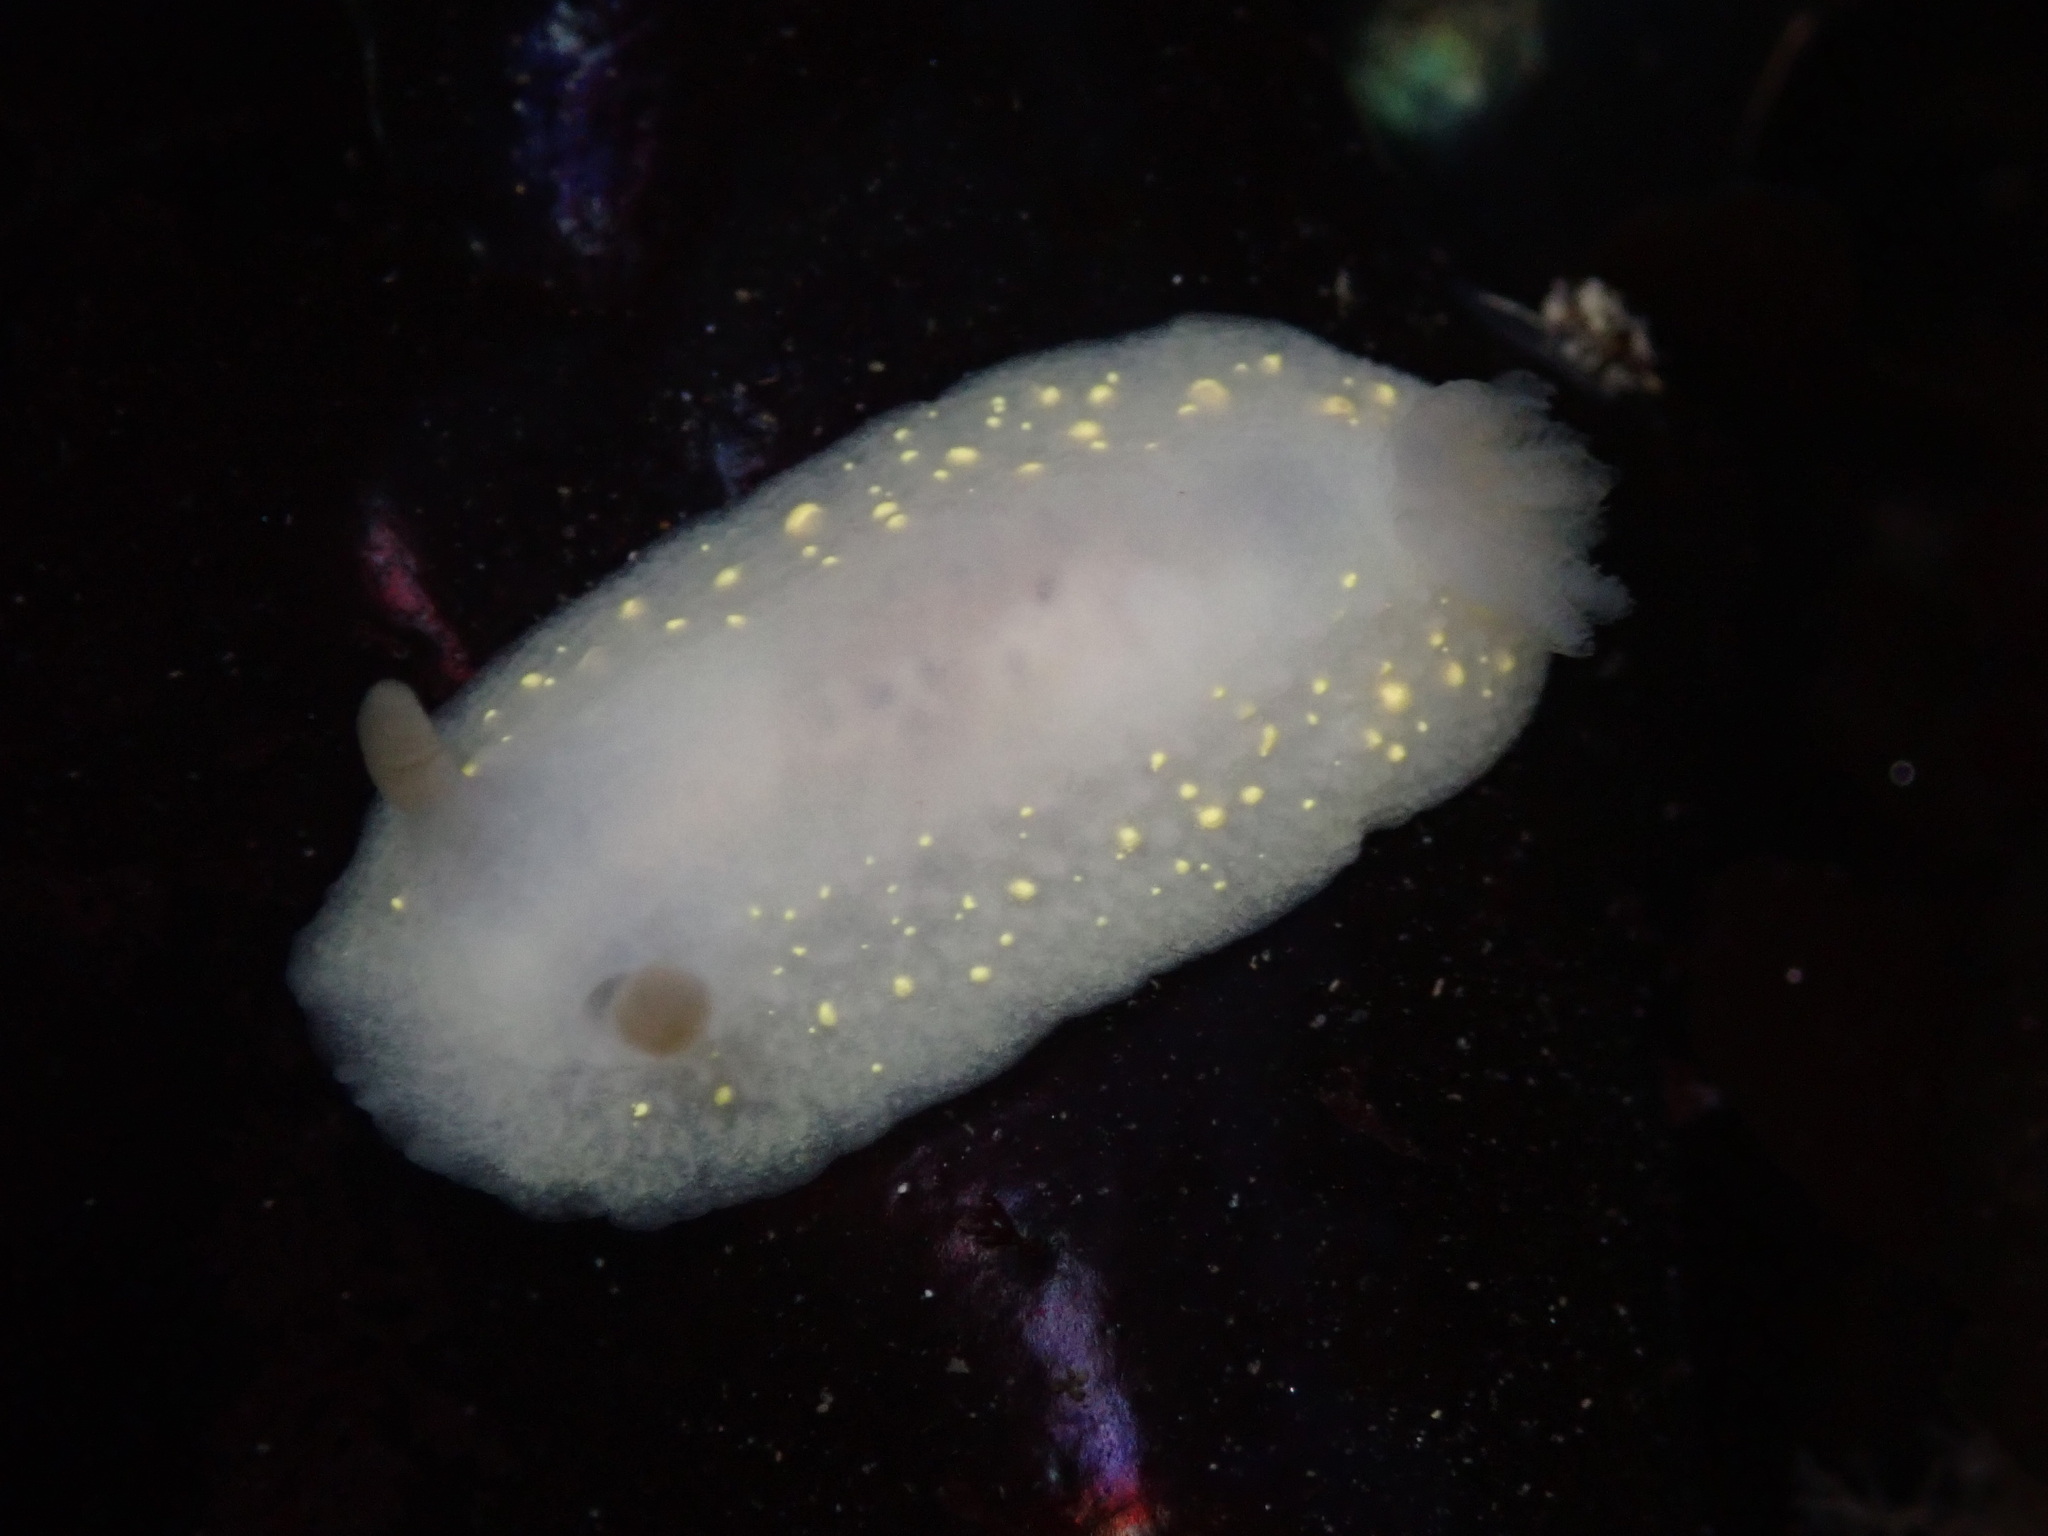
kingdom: Animalia
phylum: Mollusca
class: Gastropoda
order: Nudibranchia
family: Cadlinidae
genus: Cadlina
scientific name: Cadlina modesta
